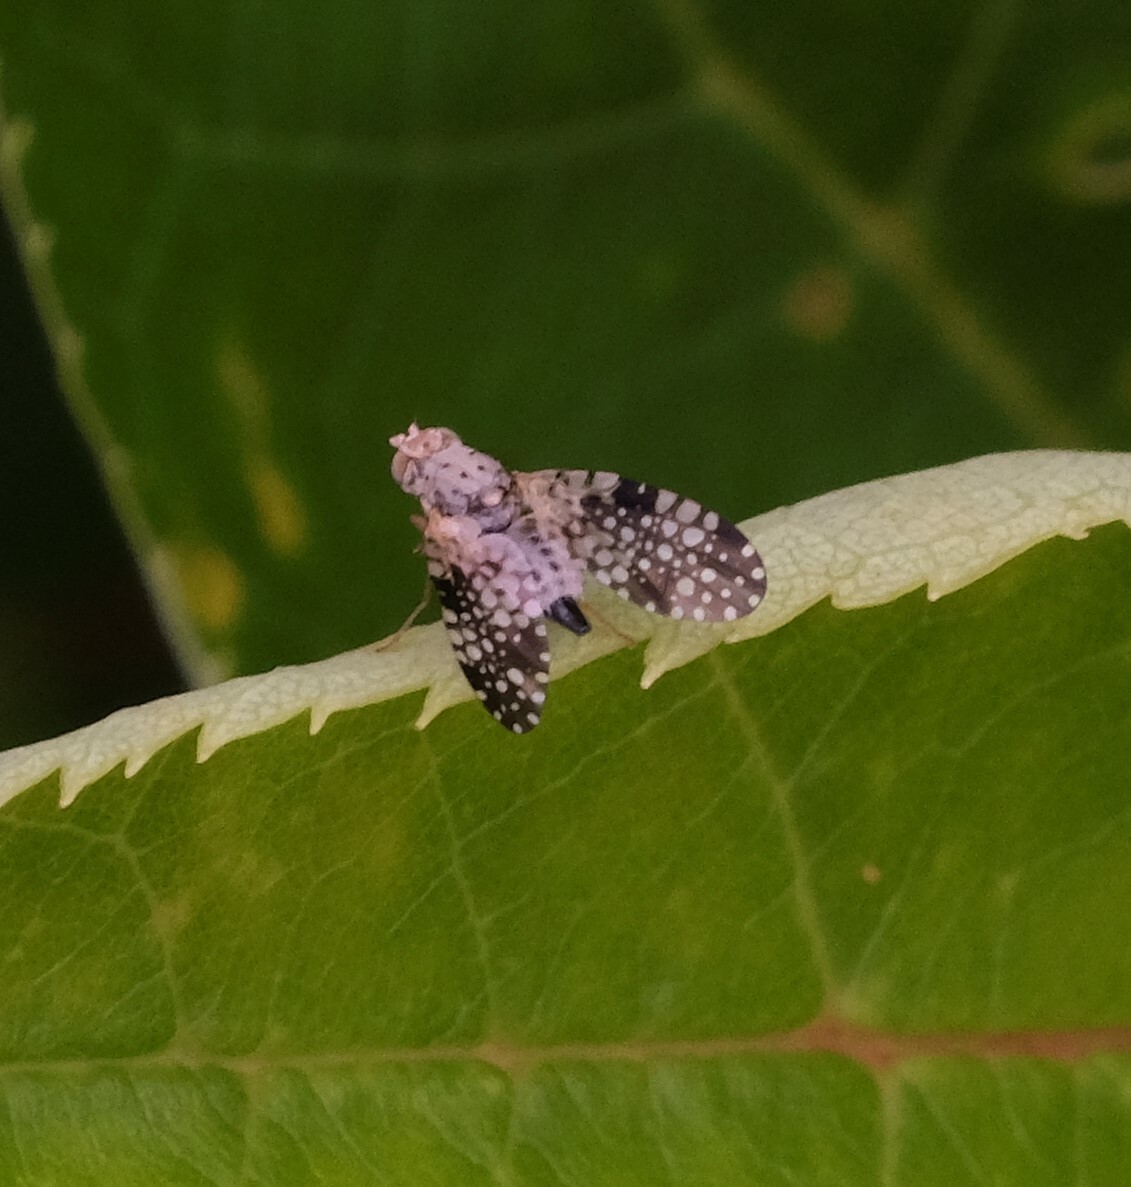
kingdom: Animalia
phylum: Arthropoda
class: Insecta
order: Diptera
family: Tephritidae
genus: Campiglossa
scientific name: Campiglossa albiceps
